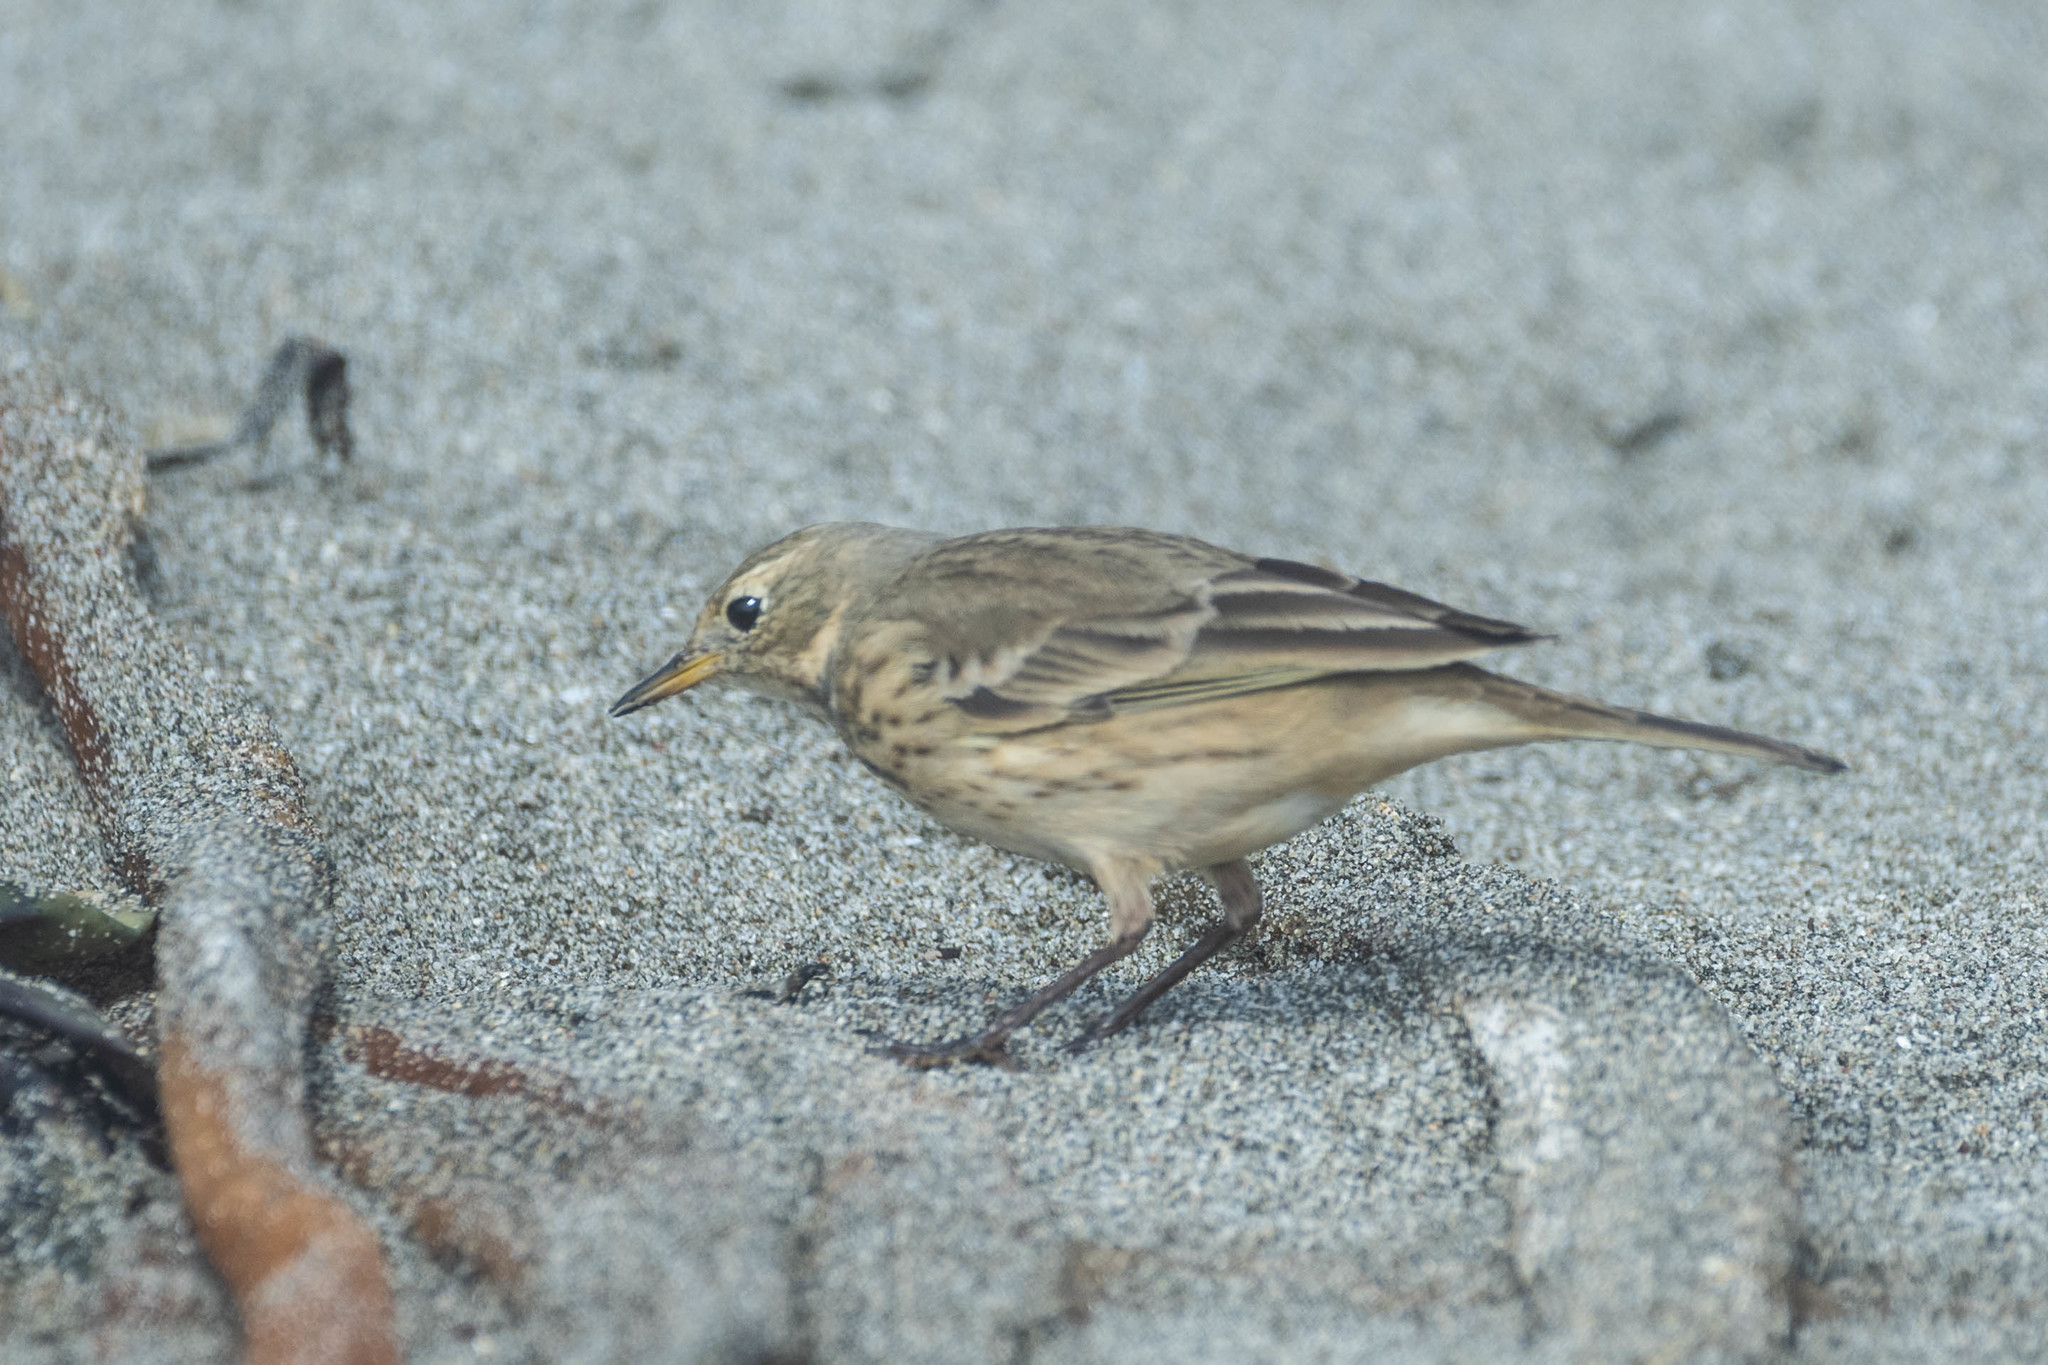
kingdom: Animalia
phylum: Chordata
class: Aves
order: Passeriformes
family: Motacillidae
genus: Anthus
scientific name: Anthus rubescens
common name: Buff-bellied pipit
